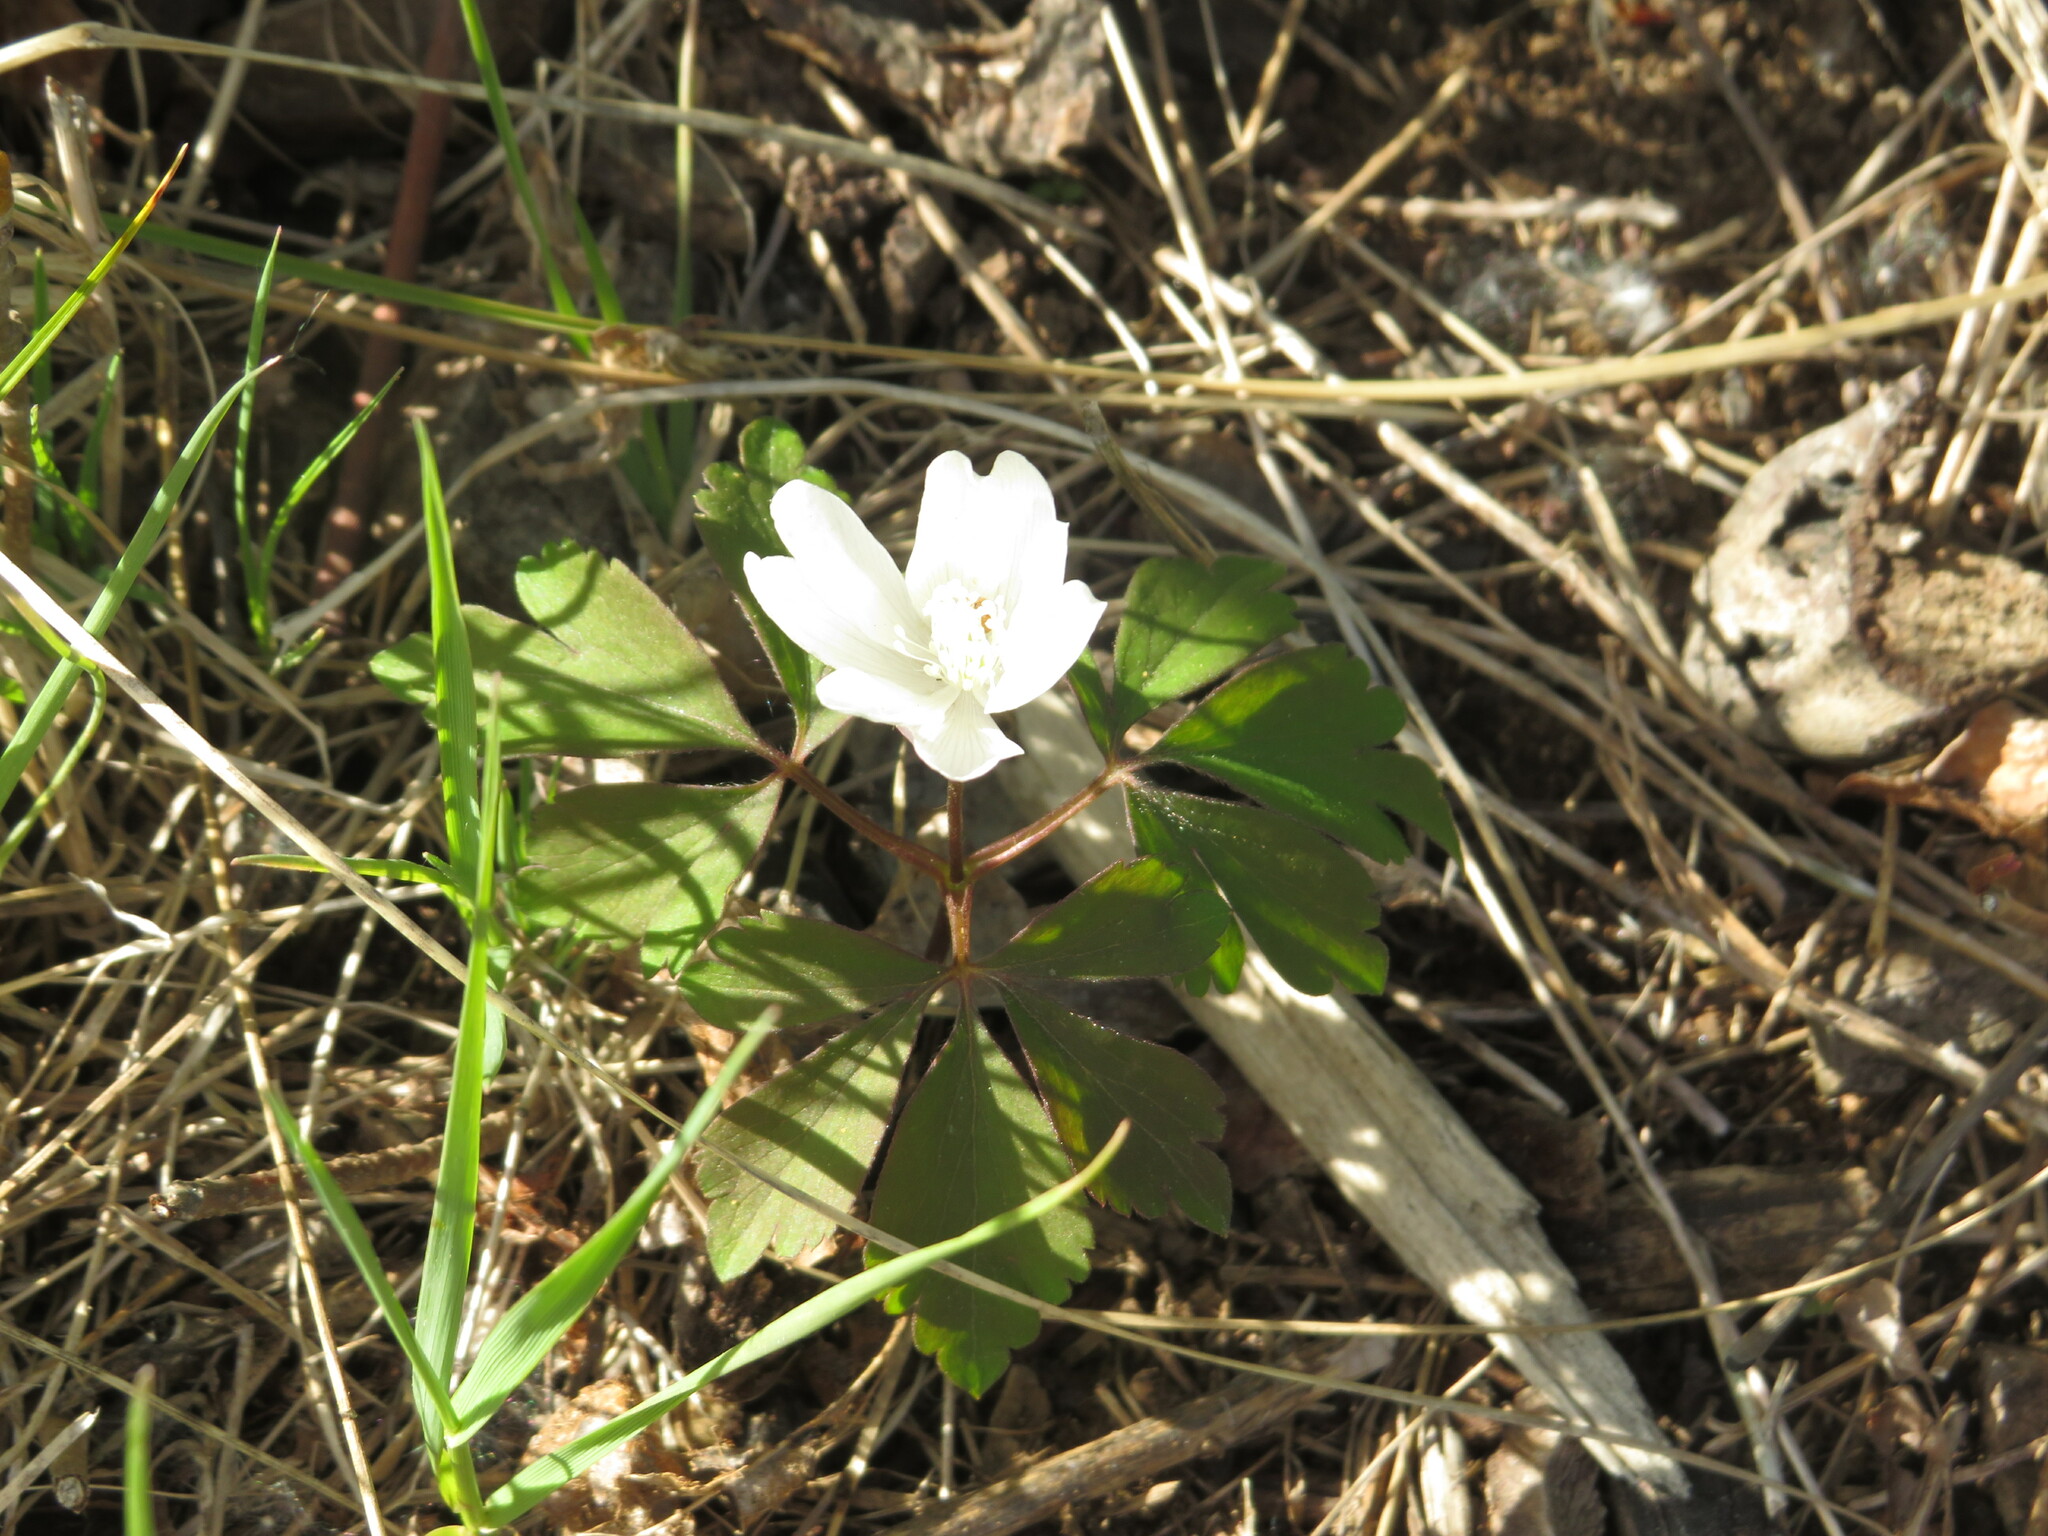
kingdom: Plantae
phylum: Tracheophyta
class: Magnoliopsida
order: Ranunculales
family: Ranunculaceae
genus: Anemone
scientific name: Anemone quinquefolia
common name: Wood anemone
